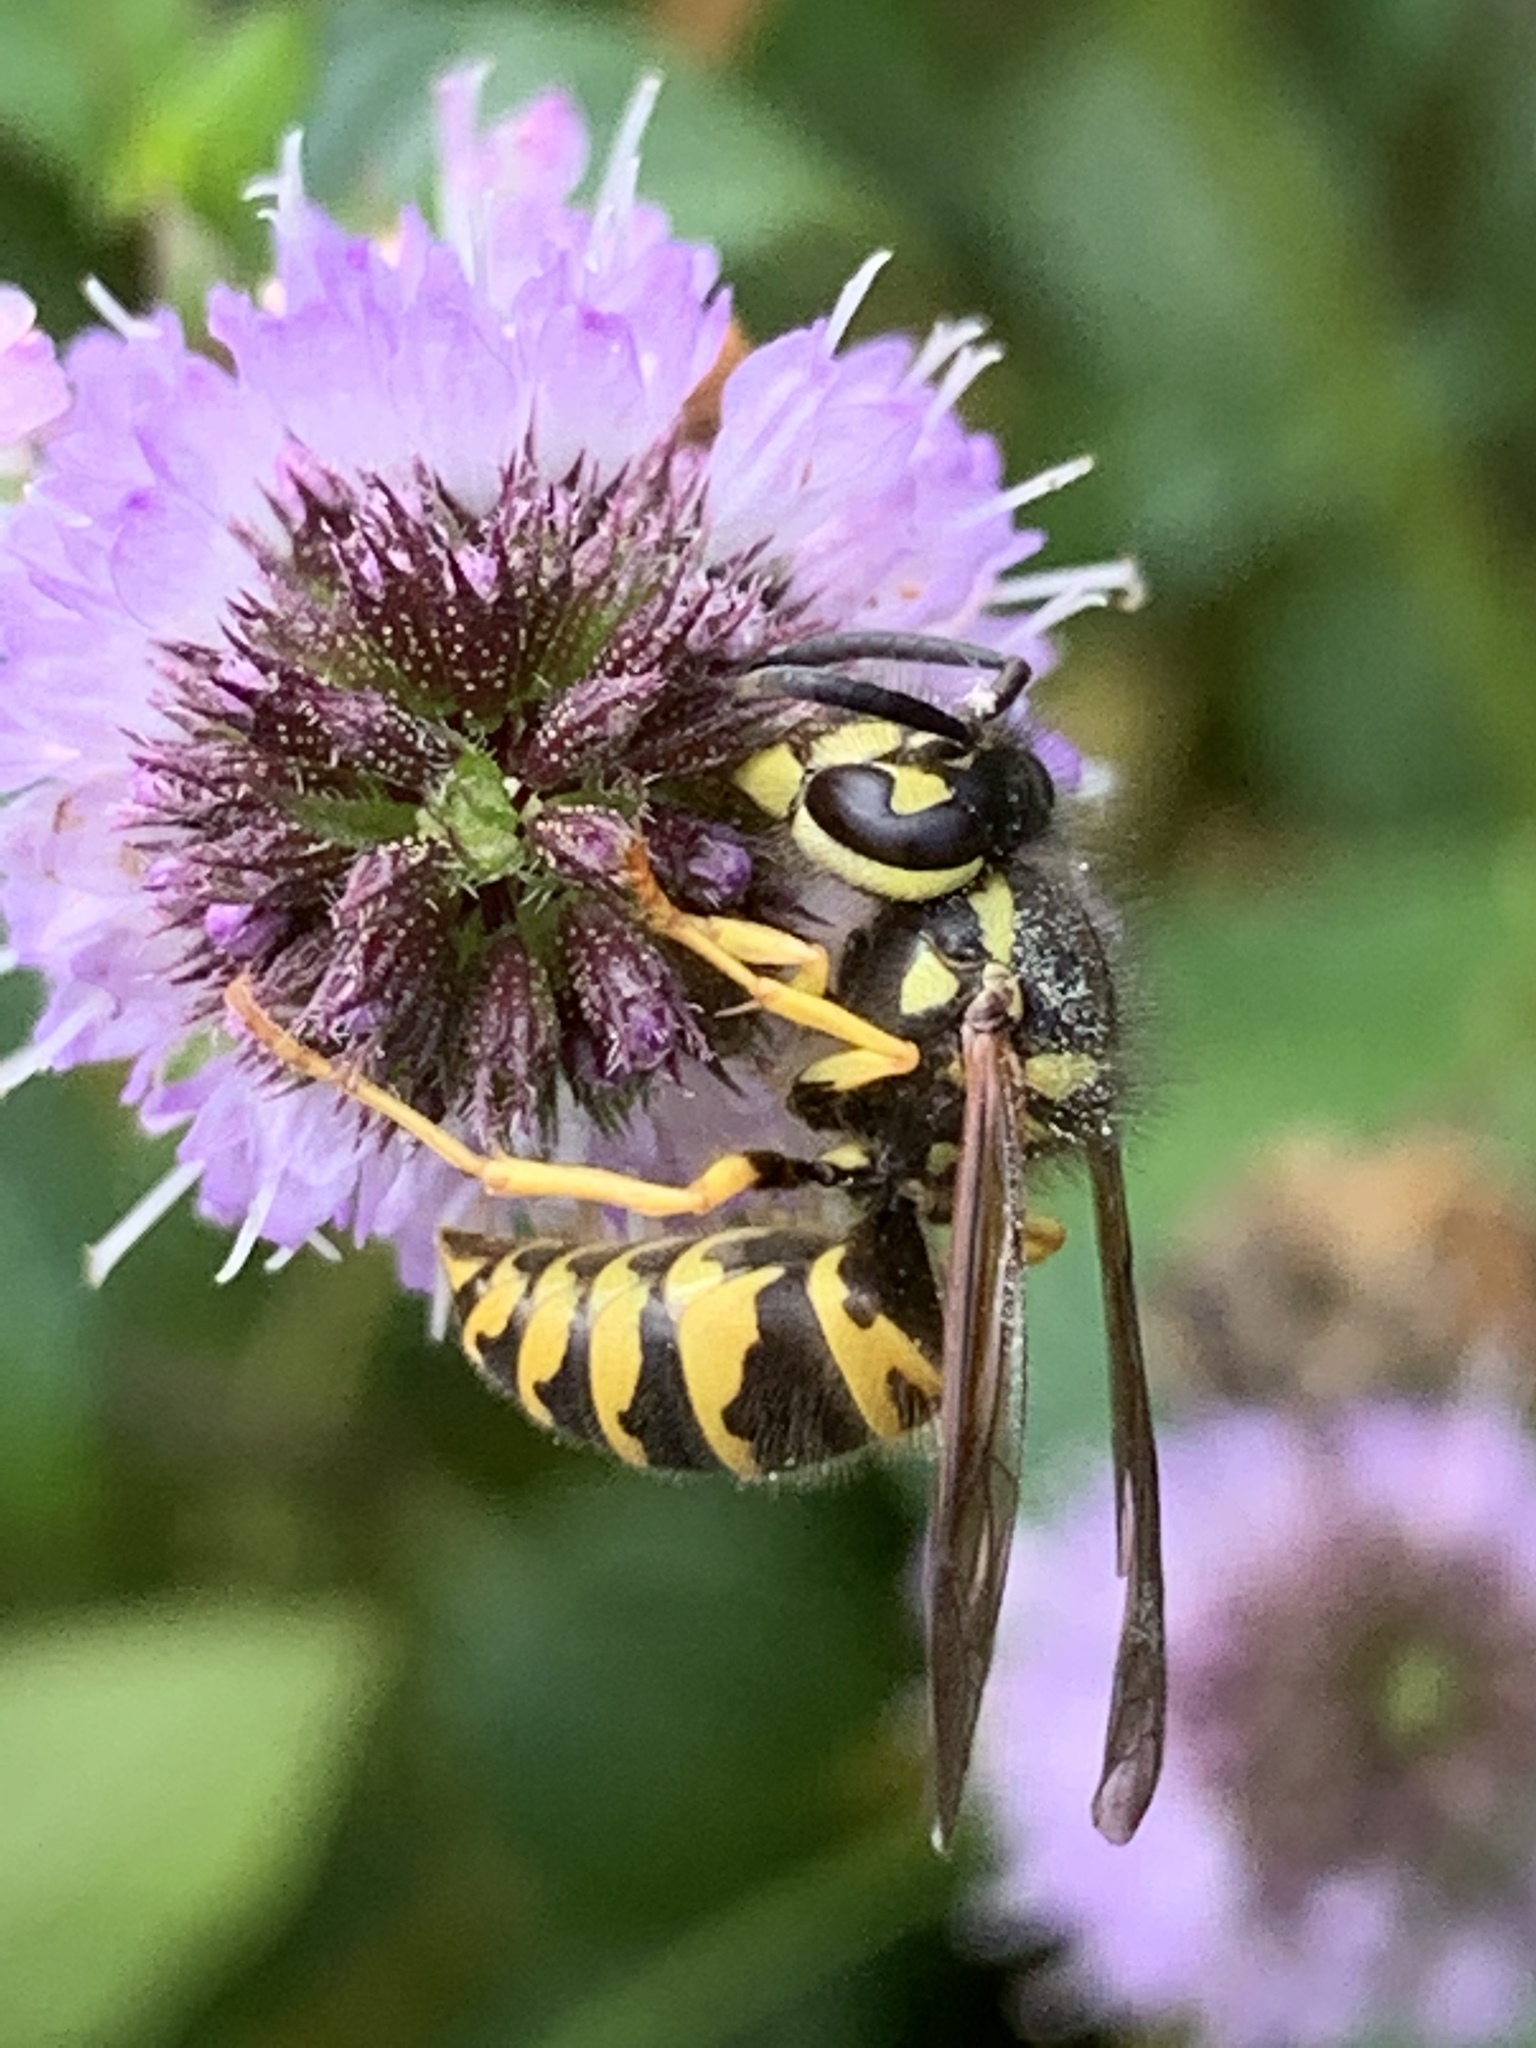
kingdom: Animalia
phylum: Arthropoda
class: Insecta
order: Hymenoptera
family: Vespidae
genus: Vespula
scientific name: Vespula maculifrons
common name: Eastern yellowjacket
